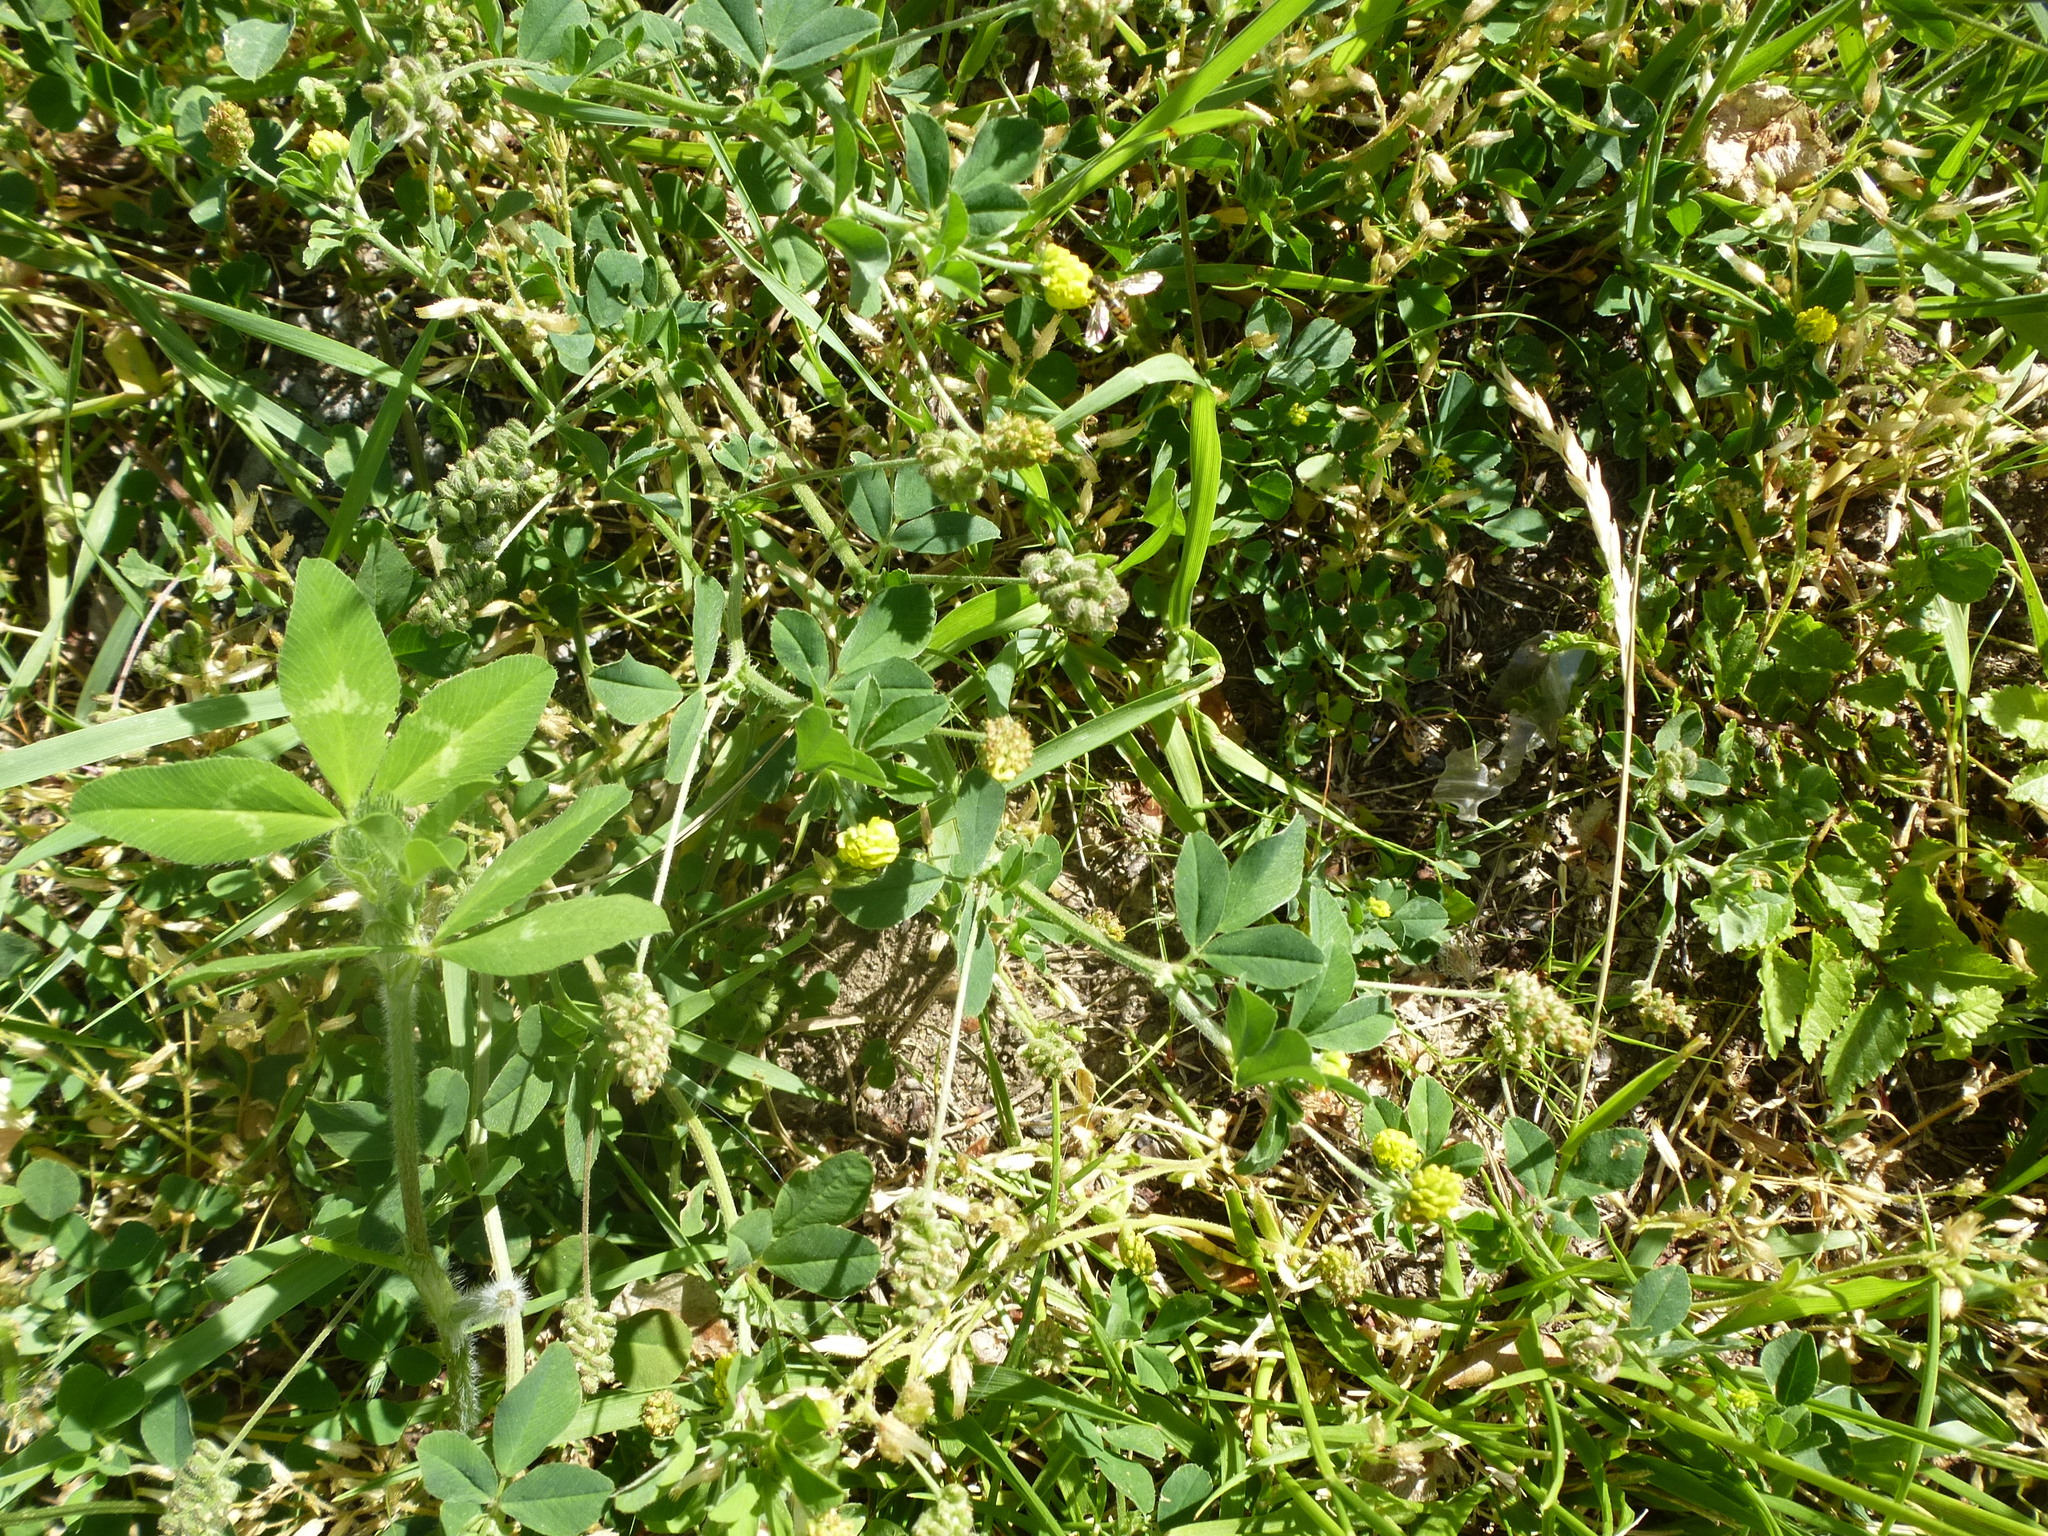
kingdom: Plantae
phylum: Tracheophyta
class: Magnoliopsida
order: Fabales
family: Fabaceae
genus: Medicago
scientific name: Medicago lupulina
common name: Black medick
